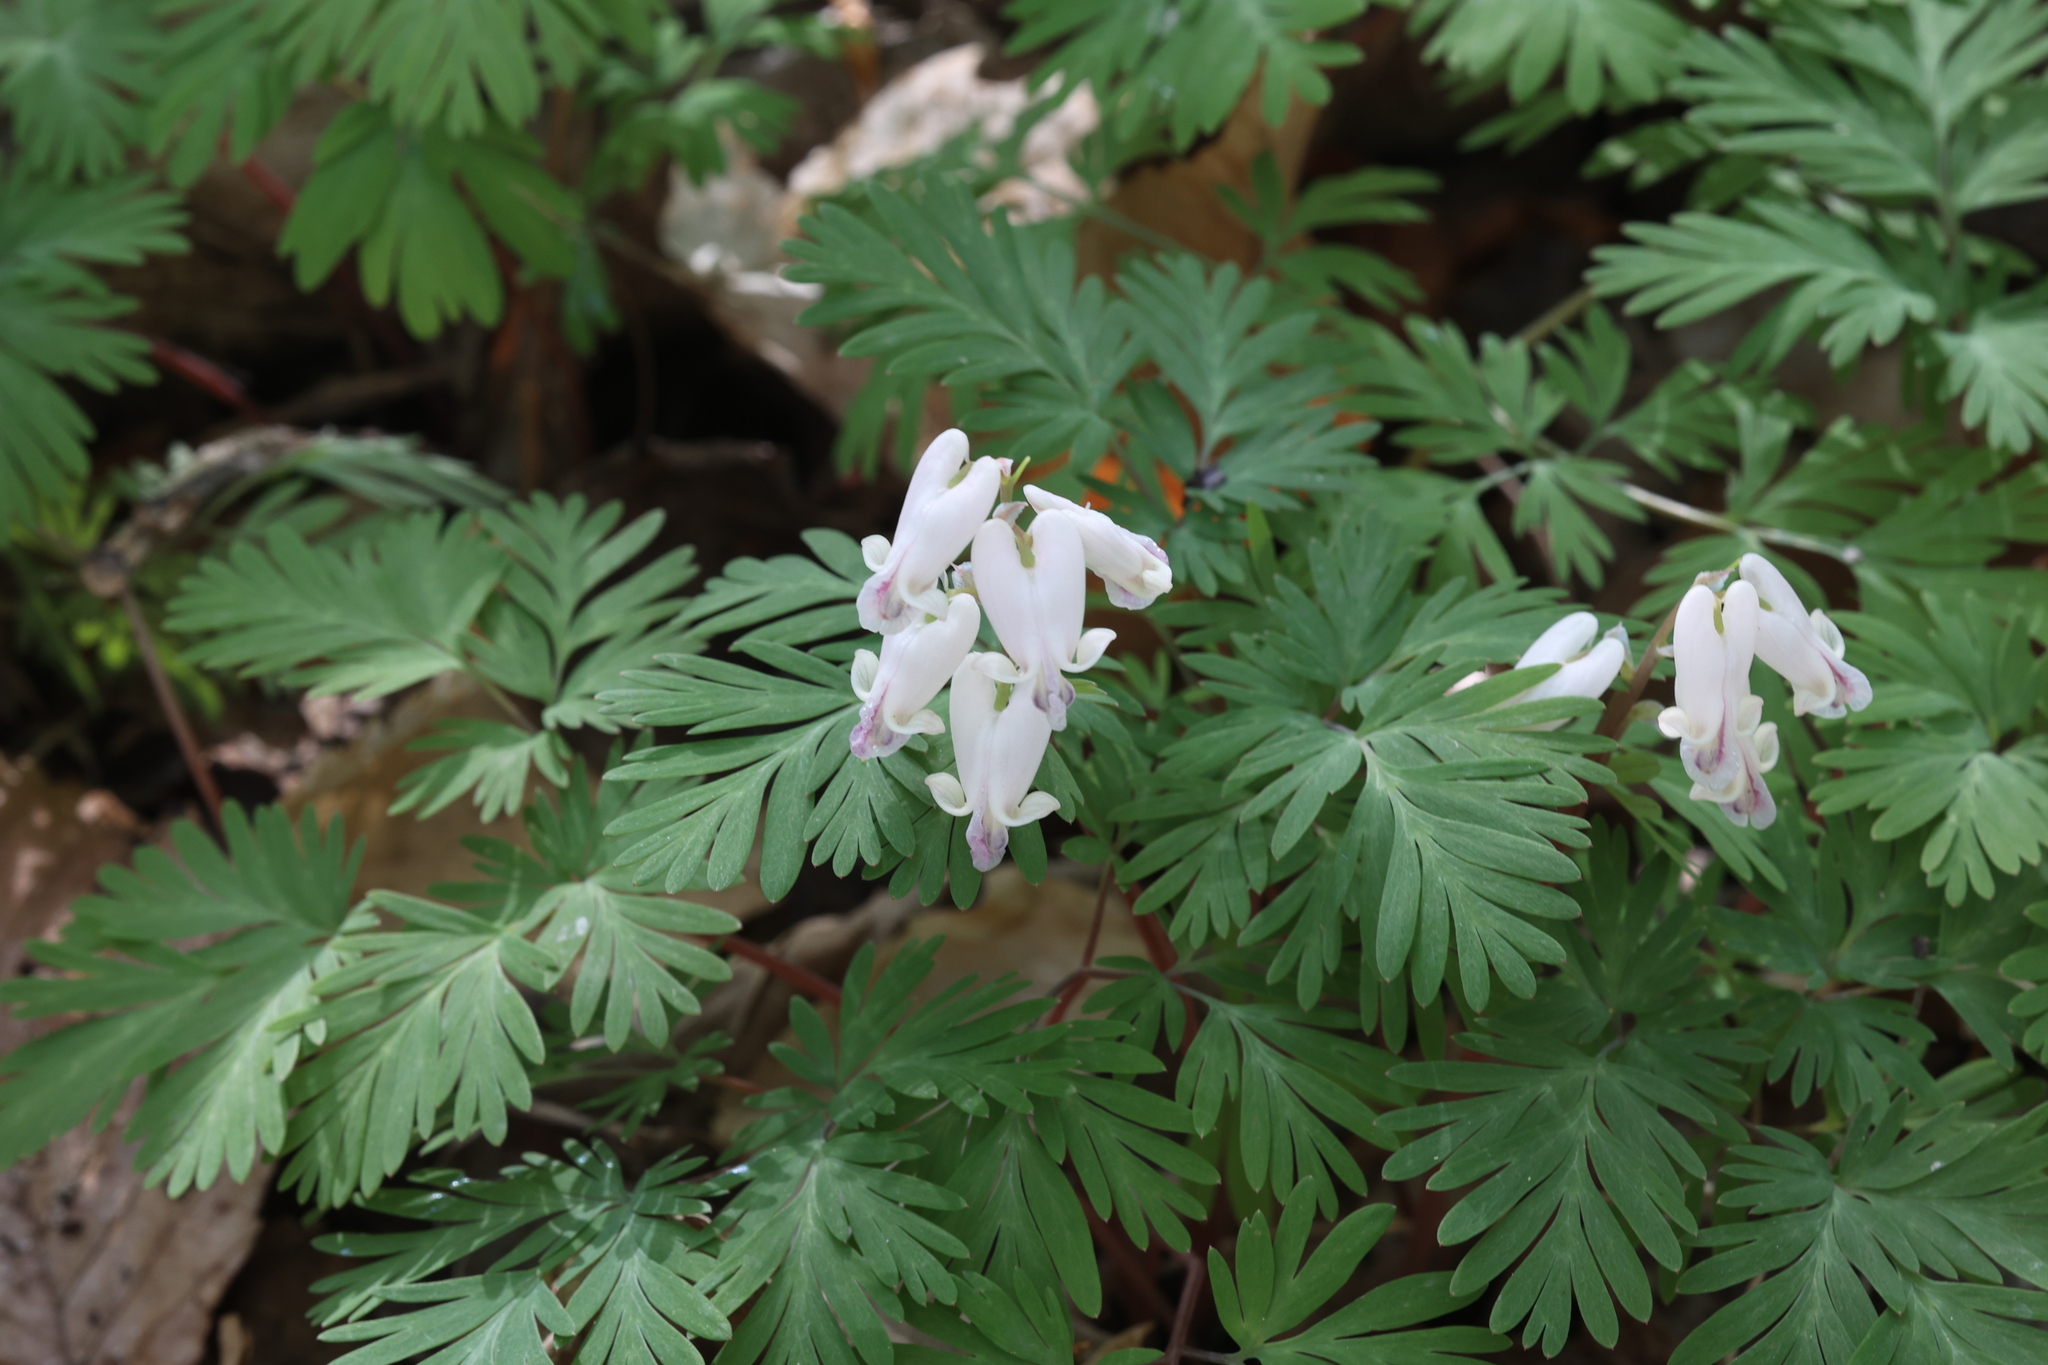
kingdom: Plantae
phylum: Tracheophyta
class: Magnoliopsida
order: Ranunculales
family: Papaveraceae
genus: Dicentra
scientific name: Dicentra canadensis
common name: Squirrel-corn
